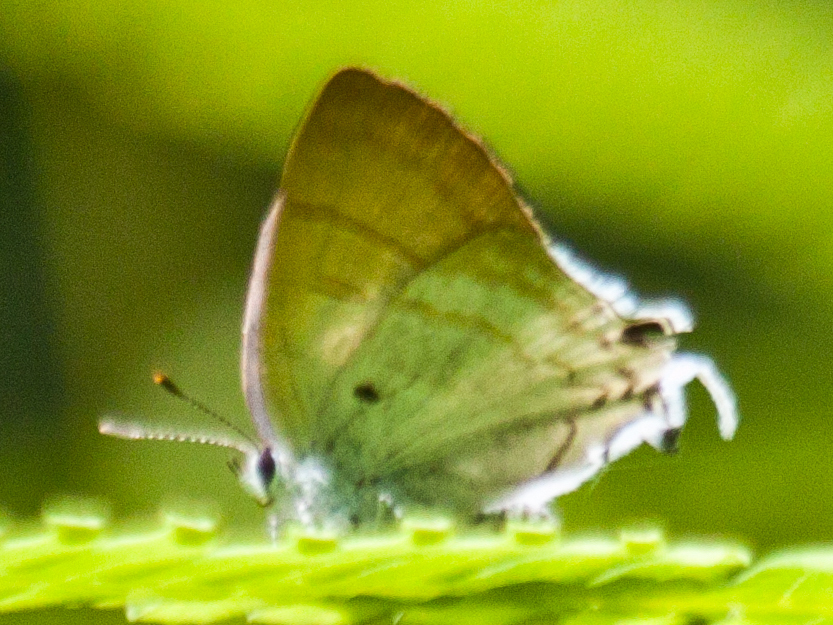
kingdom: Animalia
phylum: Arthropoda
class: Insecta
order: Lepidoptera
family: Lycaenidae
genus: Zeltus
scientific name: Zeltus amasa
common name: Fluffy tit
